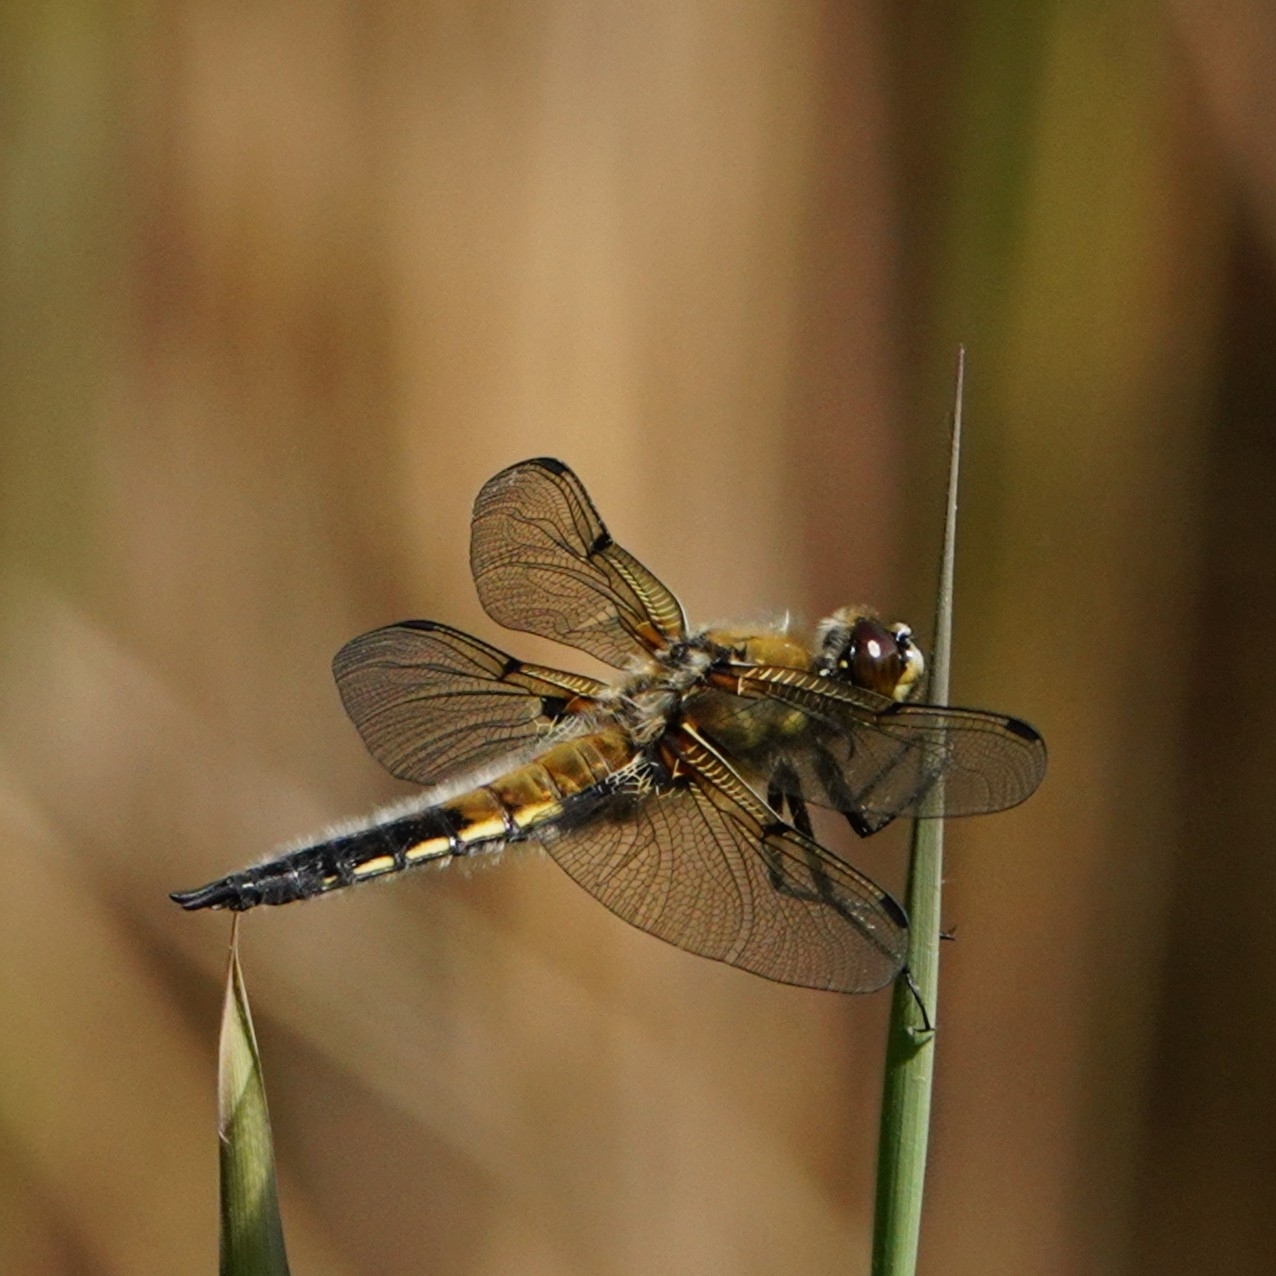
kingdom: Animalia
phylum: Arthropoda
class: Insecta
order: Odonata
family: Libellulidae
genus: Libellula
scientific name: Libellula quadrimaculata
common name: Four-spotted chaser
